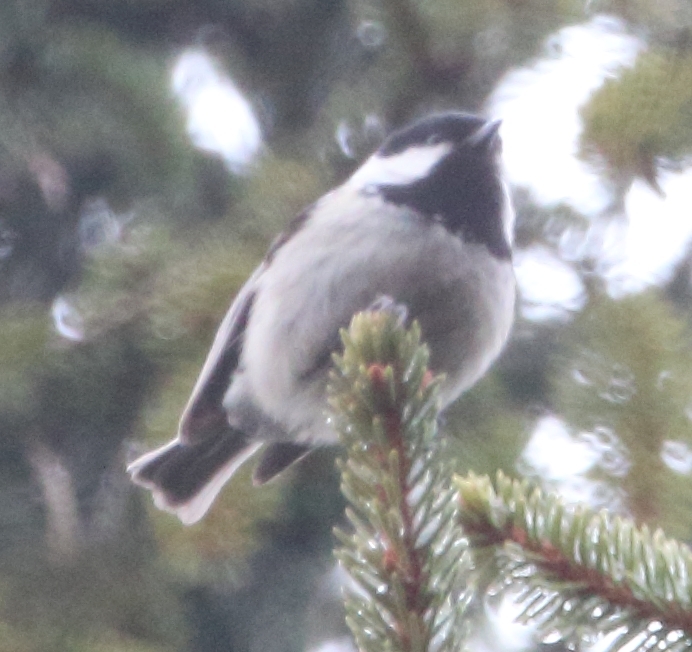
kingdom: Animalia
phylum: Chordata
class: Aves
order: Passeriformes
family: Paridae
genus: Periparus
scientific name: Periparus ater
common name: Coal tit
